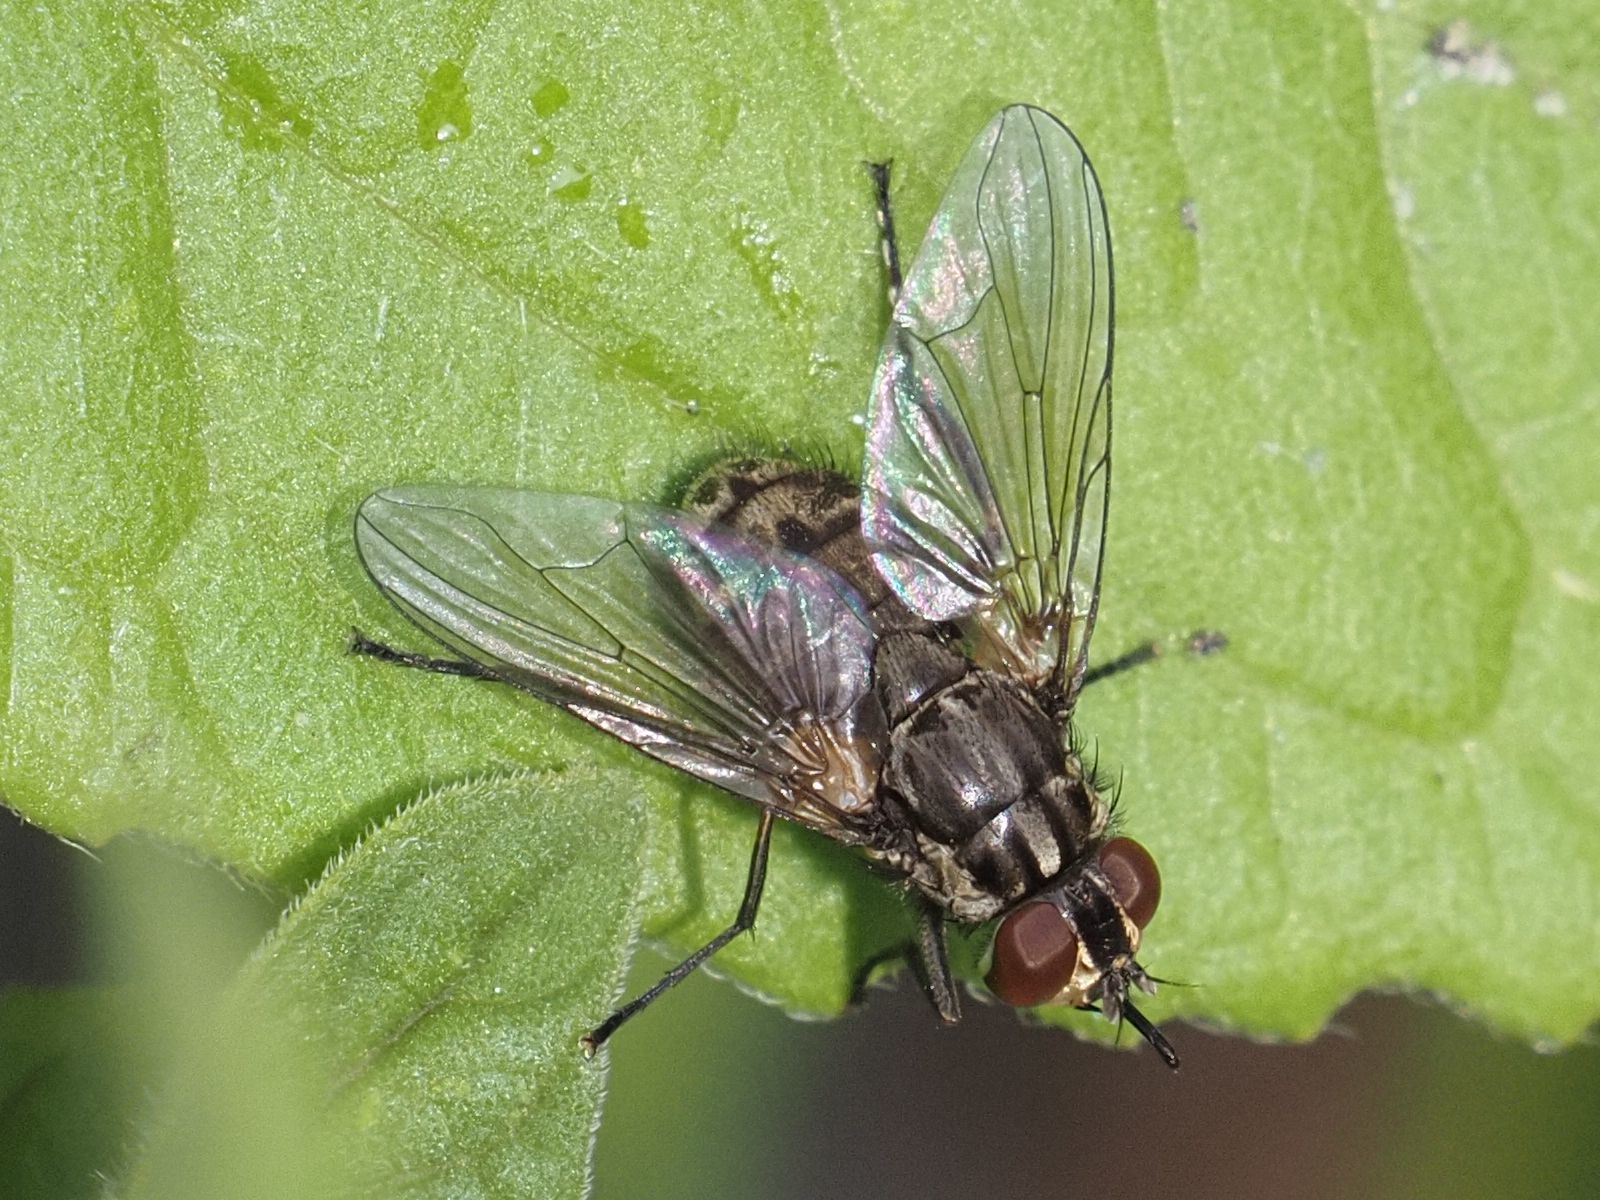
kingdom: Animalia
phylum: Arthropoda
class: Insecta
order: Diptera
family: Muscidae
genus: Stomoxys
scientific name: Stomoxys calcitrans
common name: Stable fly
